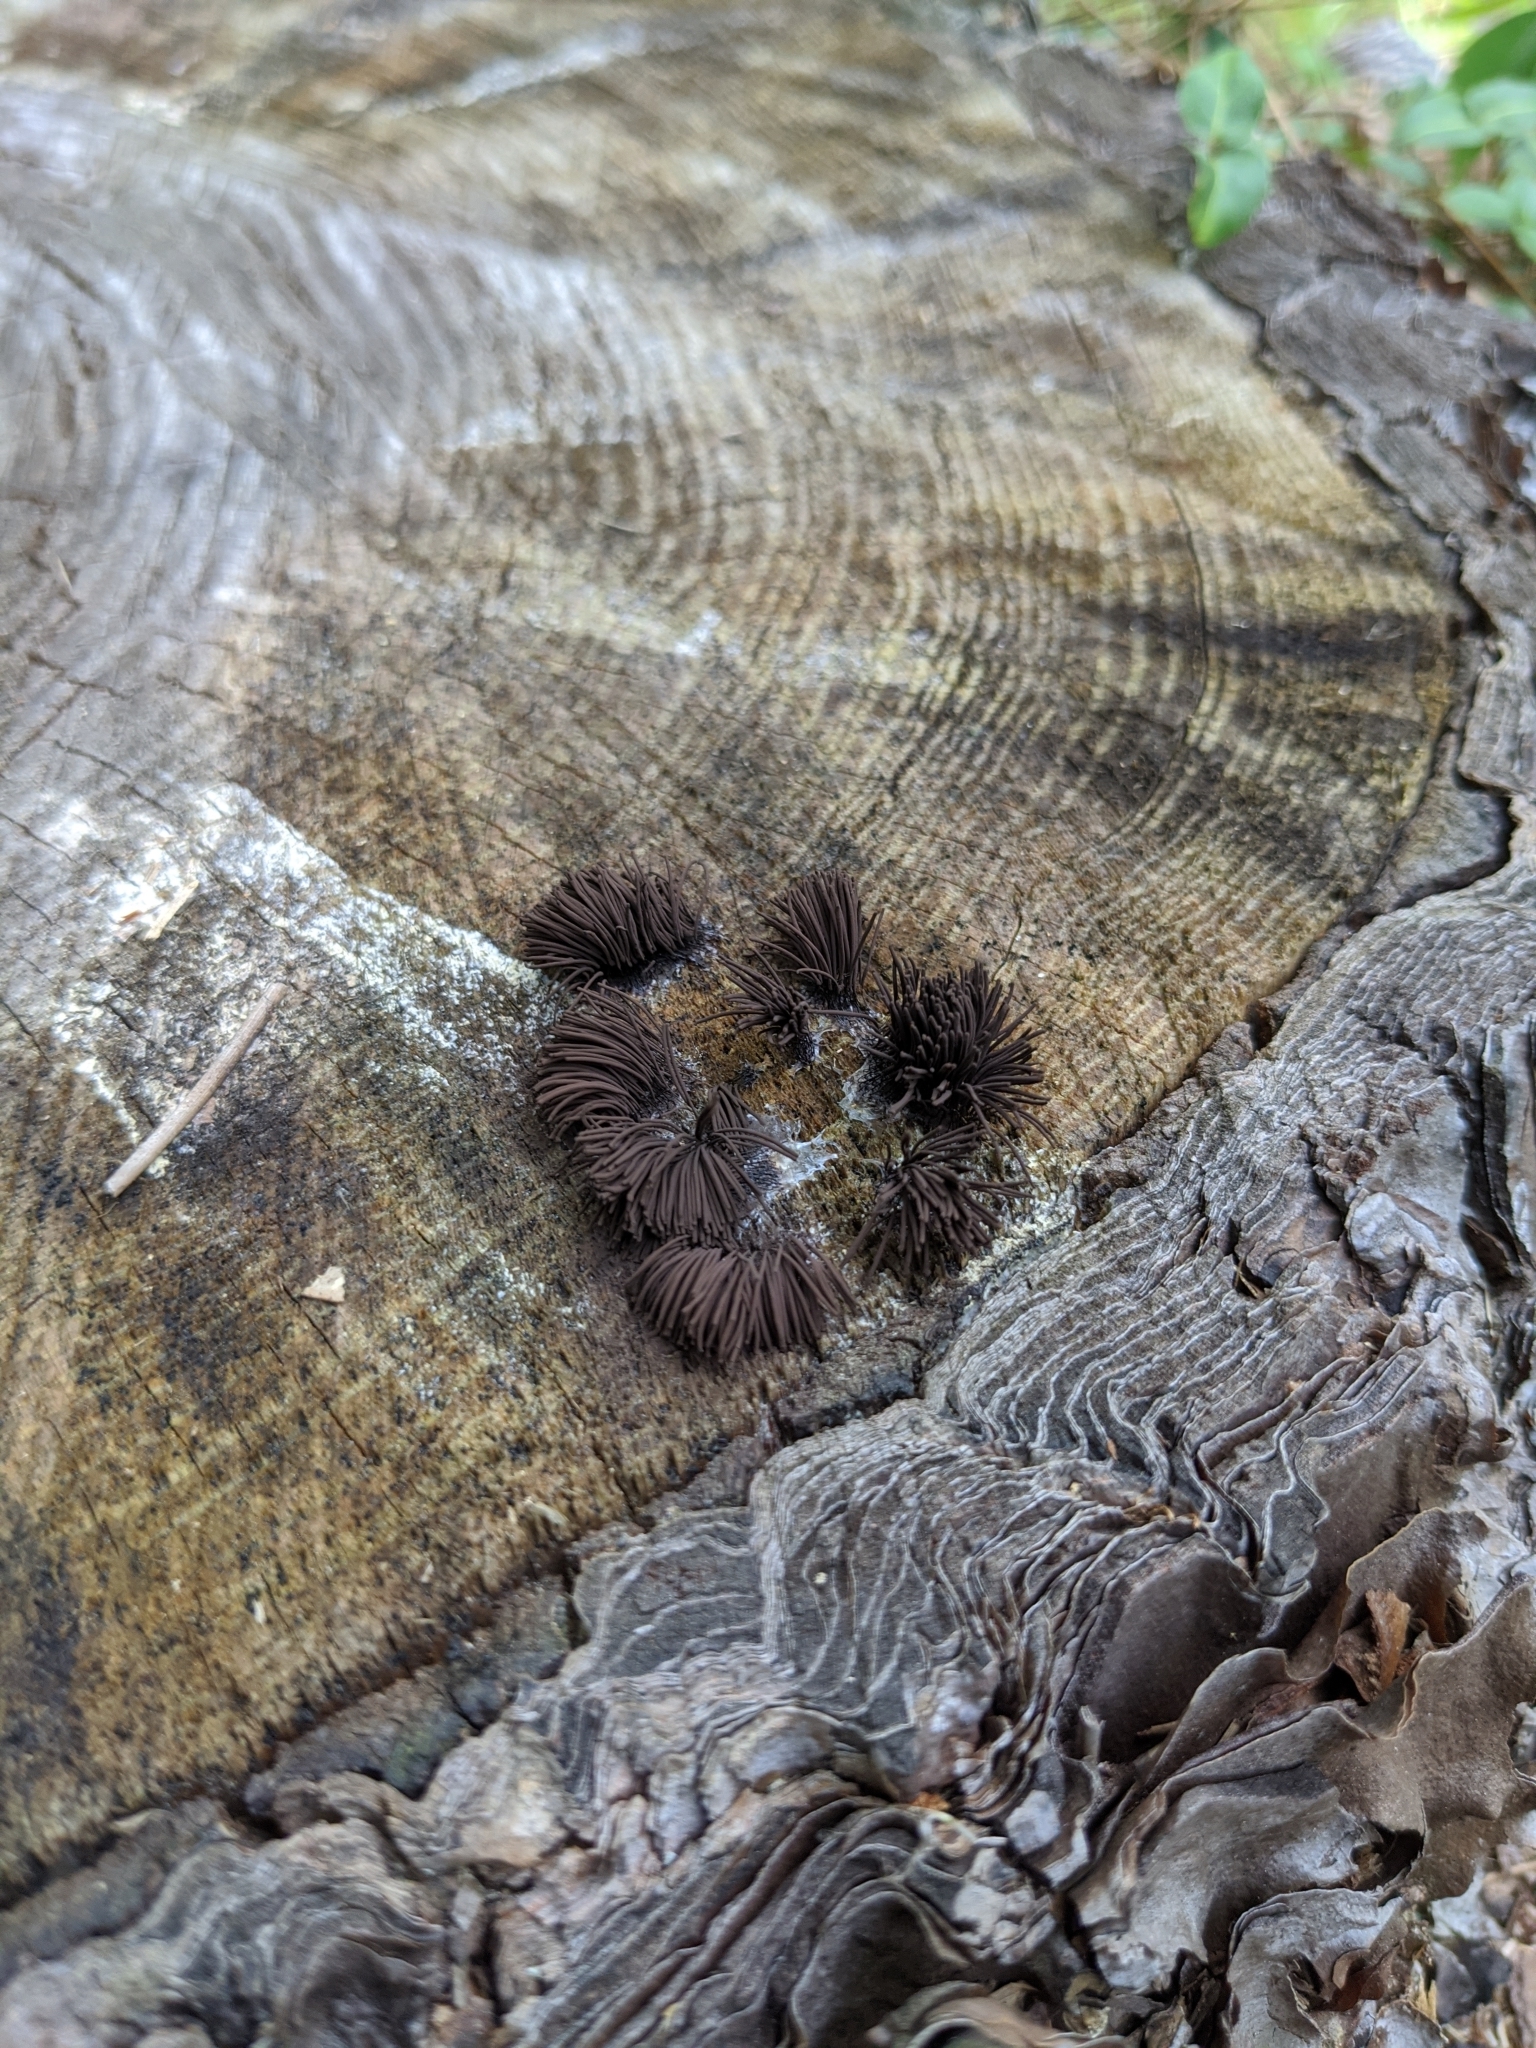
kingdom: Protozoa
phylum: Mycetozoa
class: Myxomycetes
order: Stemonitidales
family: Stemonitidaceae
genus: Stemonitis
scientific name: Stemonitis splendens
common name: Chocolate tube slime
